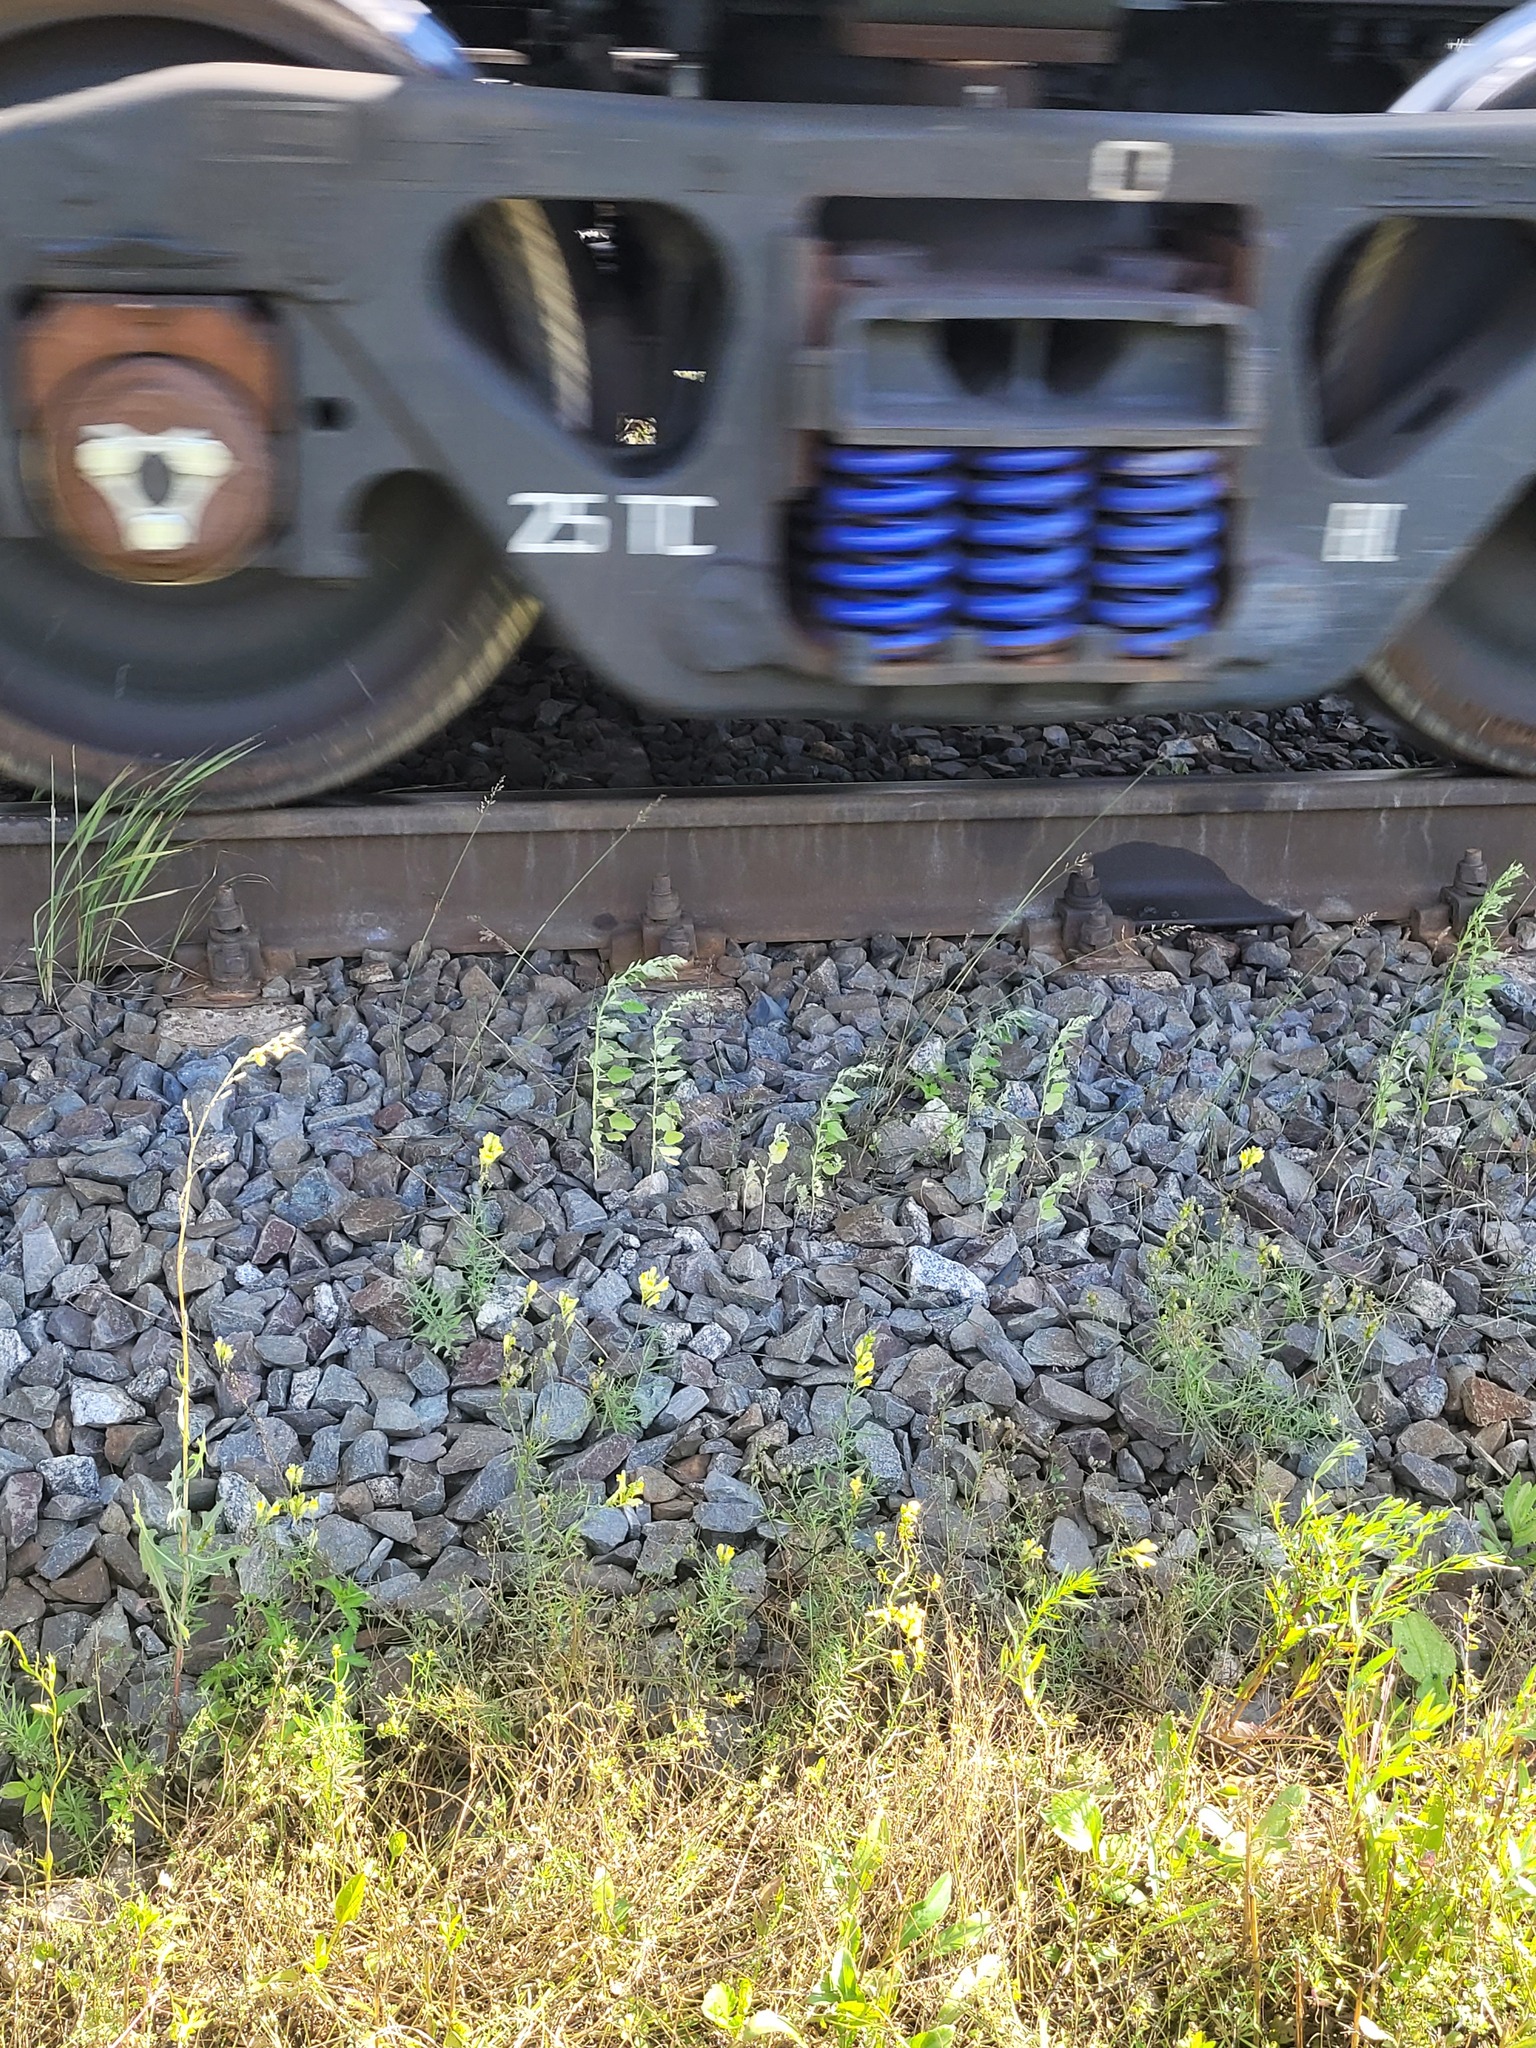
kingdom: Plantae
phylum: Tracheophyta
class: Magnoliopsida
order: Caryophyllales
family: Amaranthaceae
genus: Chenopodium
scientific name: Chenopodium album
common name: Fat-hen
